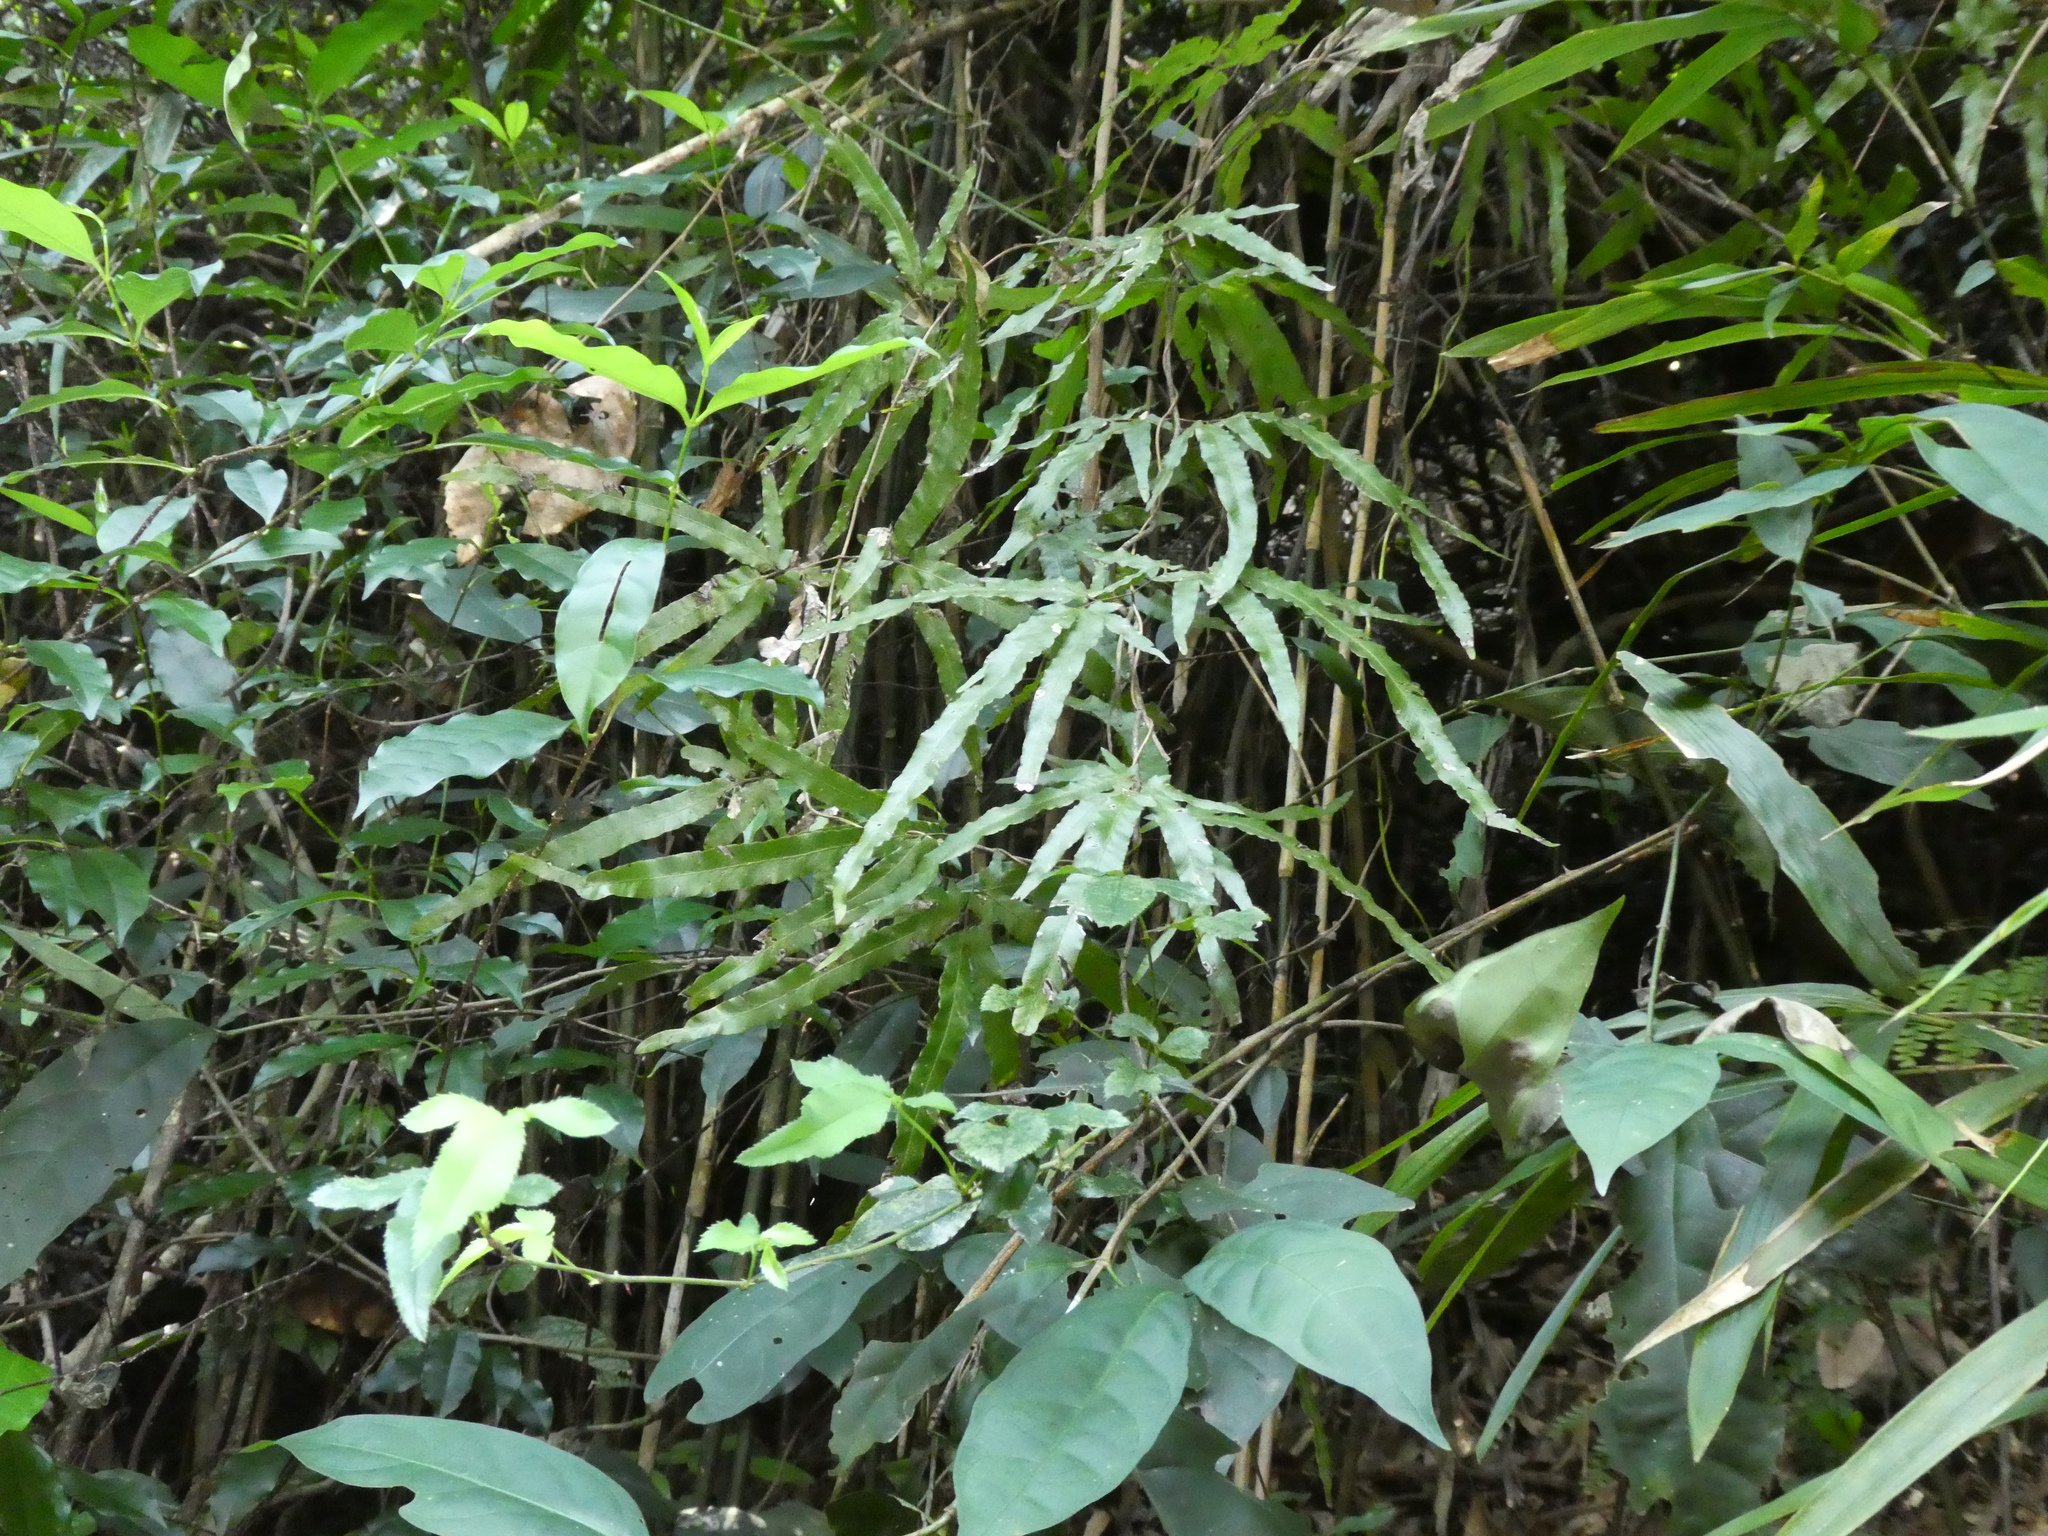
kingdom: Plantae
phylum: Tracheophyta
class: Polypodiopsida
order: Schizaeales
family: Lygodiaceae
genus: Lygodium
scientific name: Lygodium japonicum
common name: Japanese climbing fern
